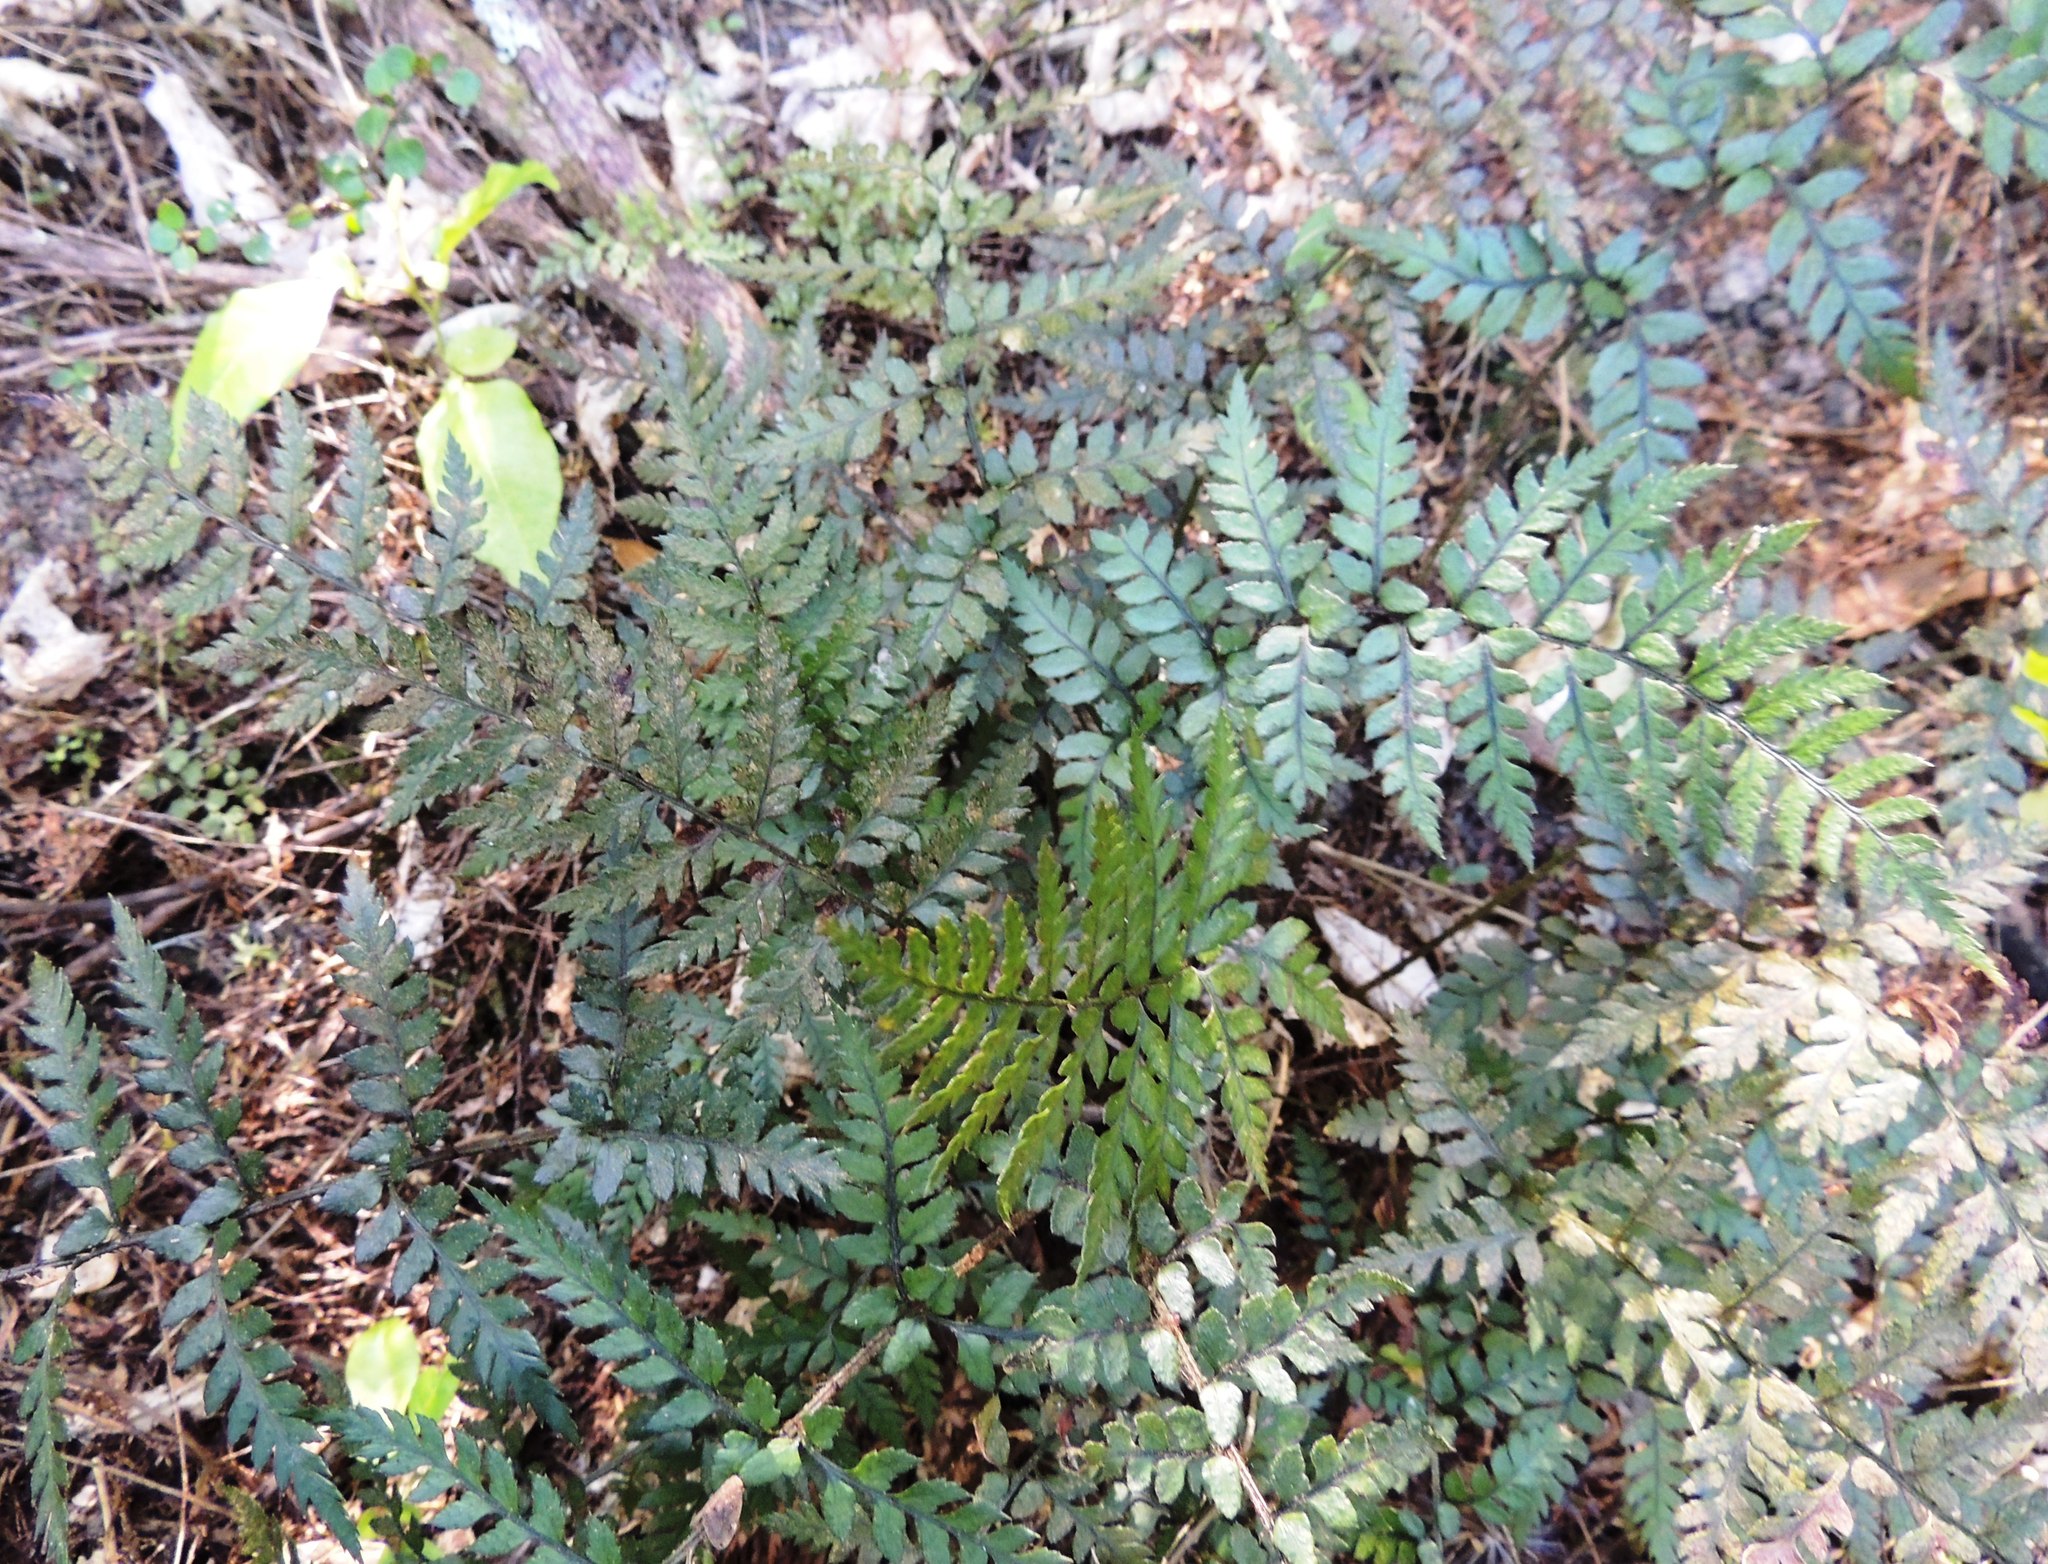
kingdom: Plantae
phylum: Tracheophyta
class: Polypodiopsida
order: Polypodiales
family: Dryopteridaceae
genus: Polystichum
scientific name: Polystichum neozelandicum
